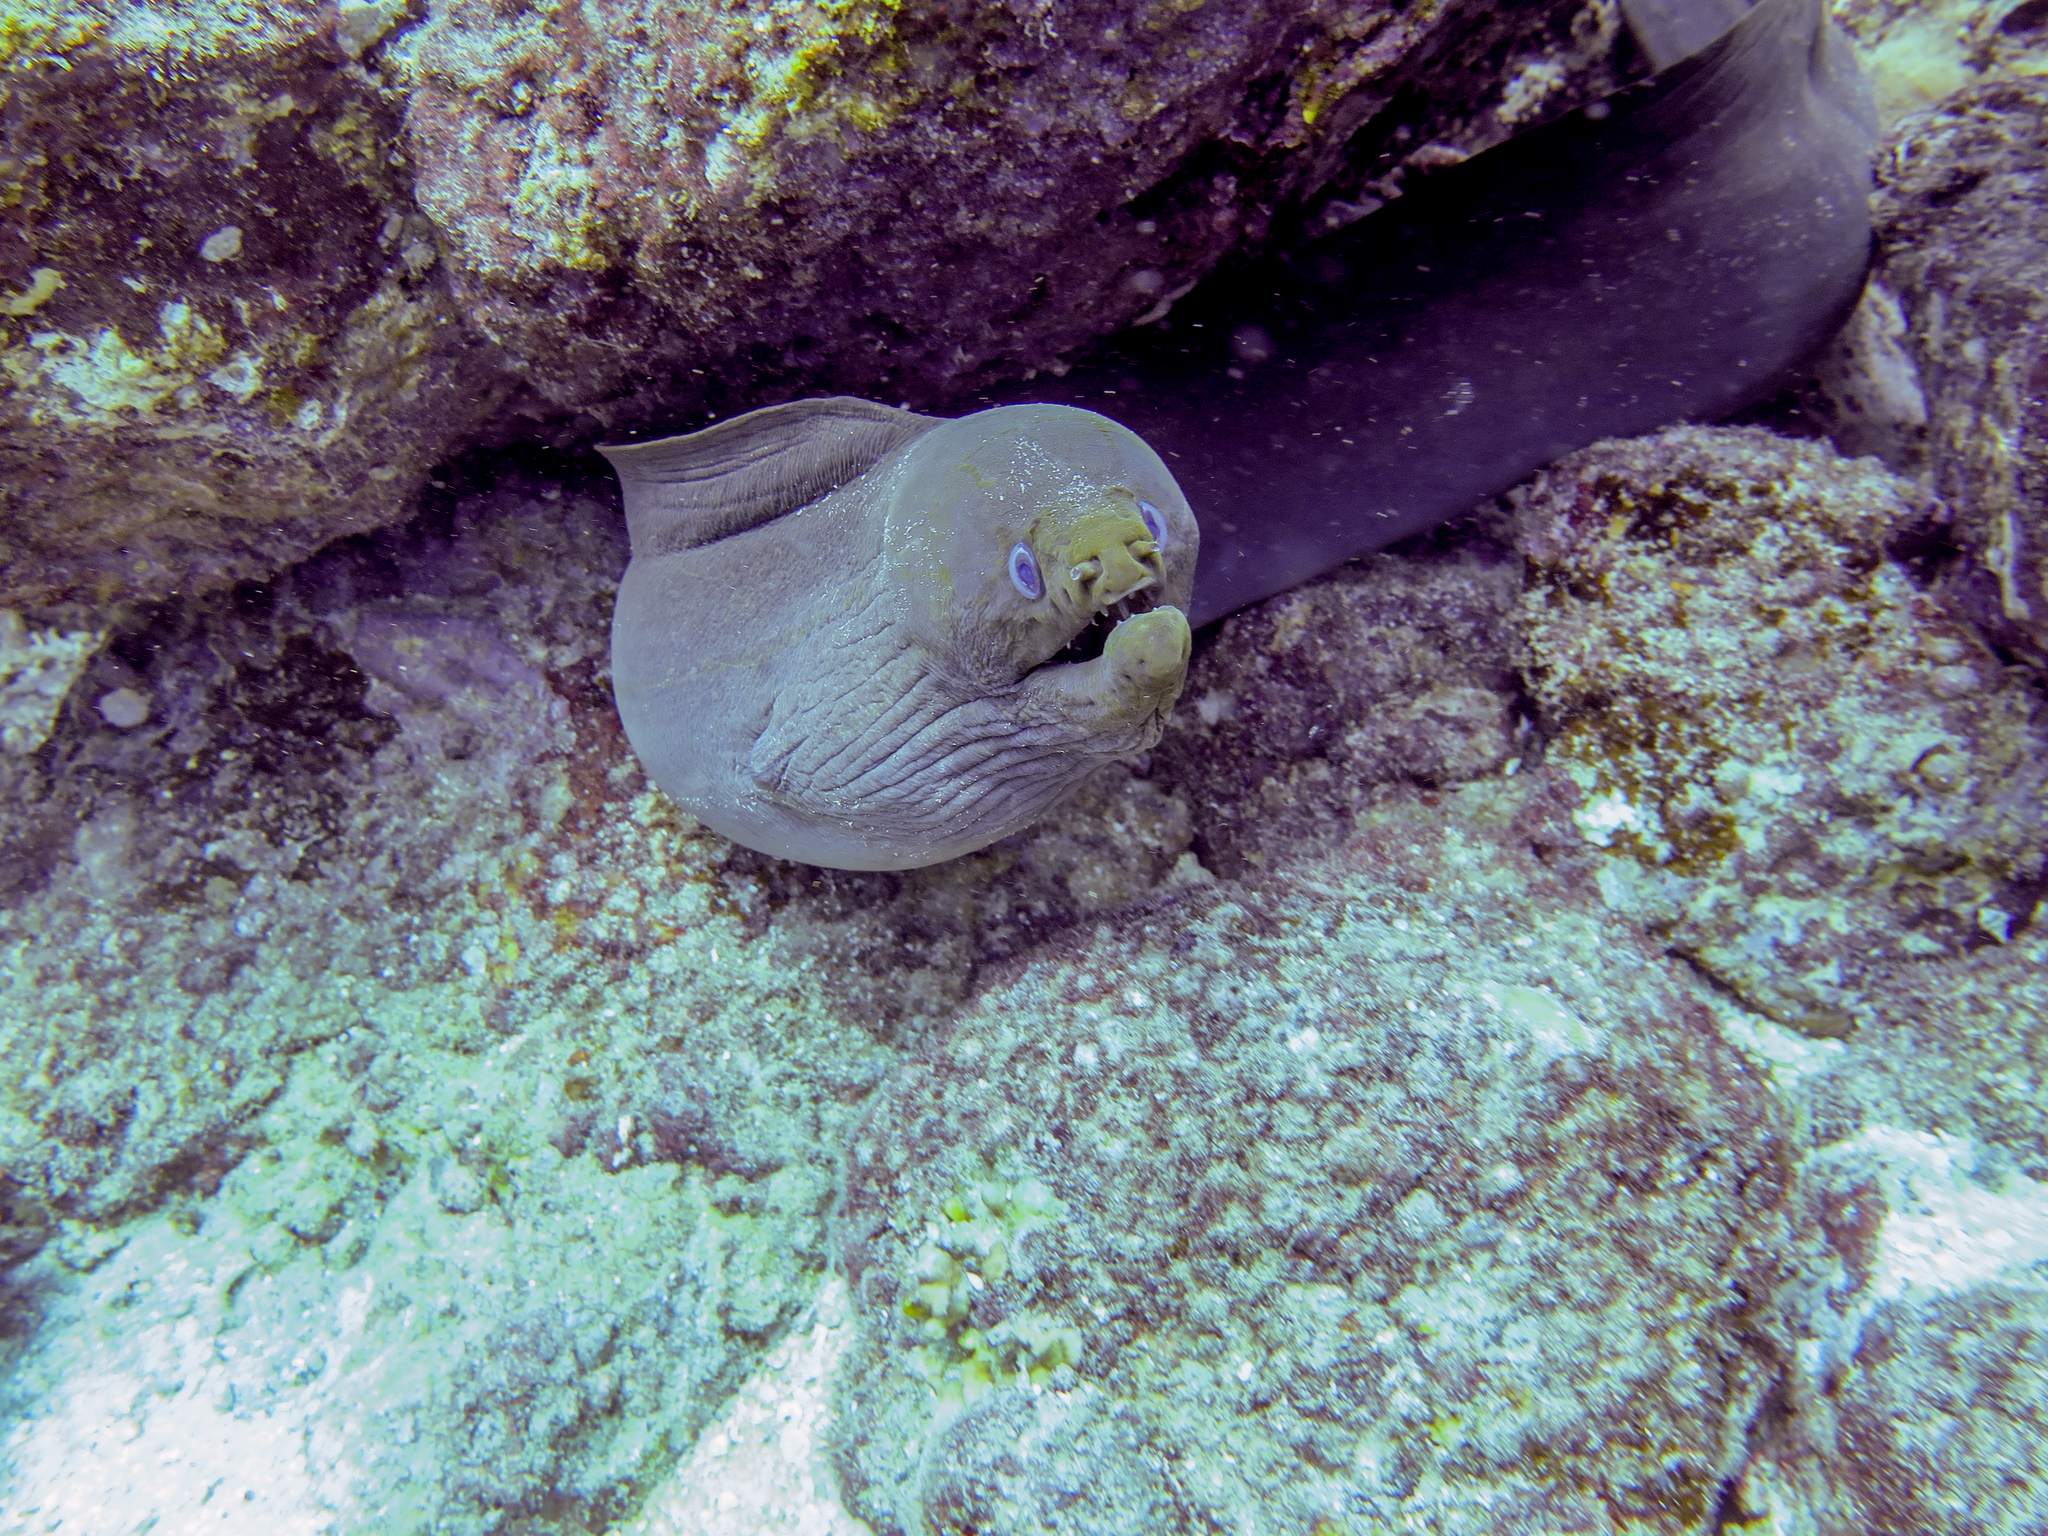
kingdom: Animalia
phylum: Chordata
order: Anguilliformes
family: Muraenidae
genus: Gymnothorax
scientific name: Gymnothorax castaneus
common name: Chestnut moray
